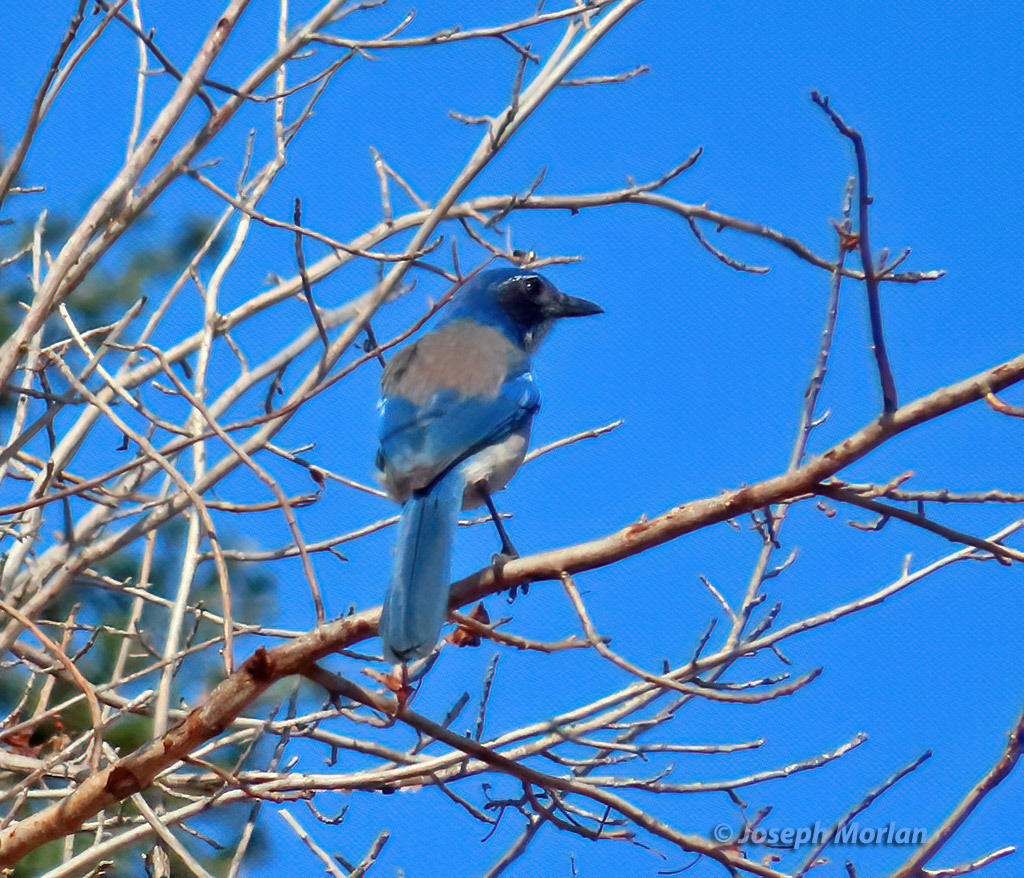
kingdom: Animalia
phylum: Chordata
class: Aves
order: Passeriformes
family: Corvidae
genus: Aphelocoma
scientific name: Aphelocoma californica
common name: California scrub-jay
